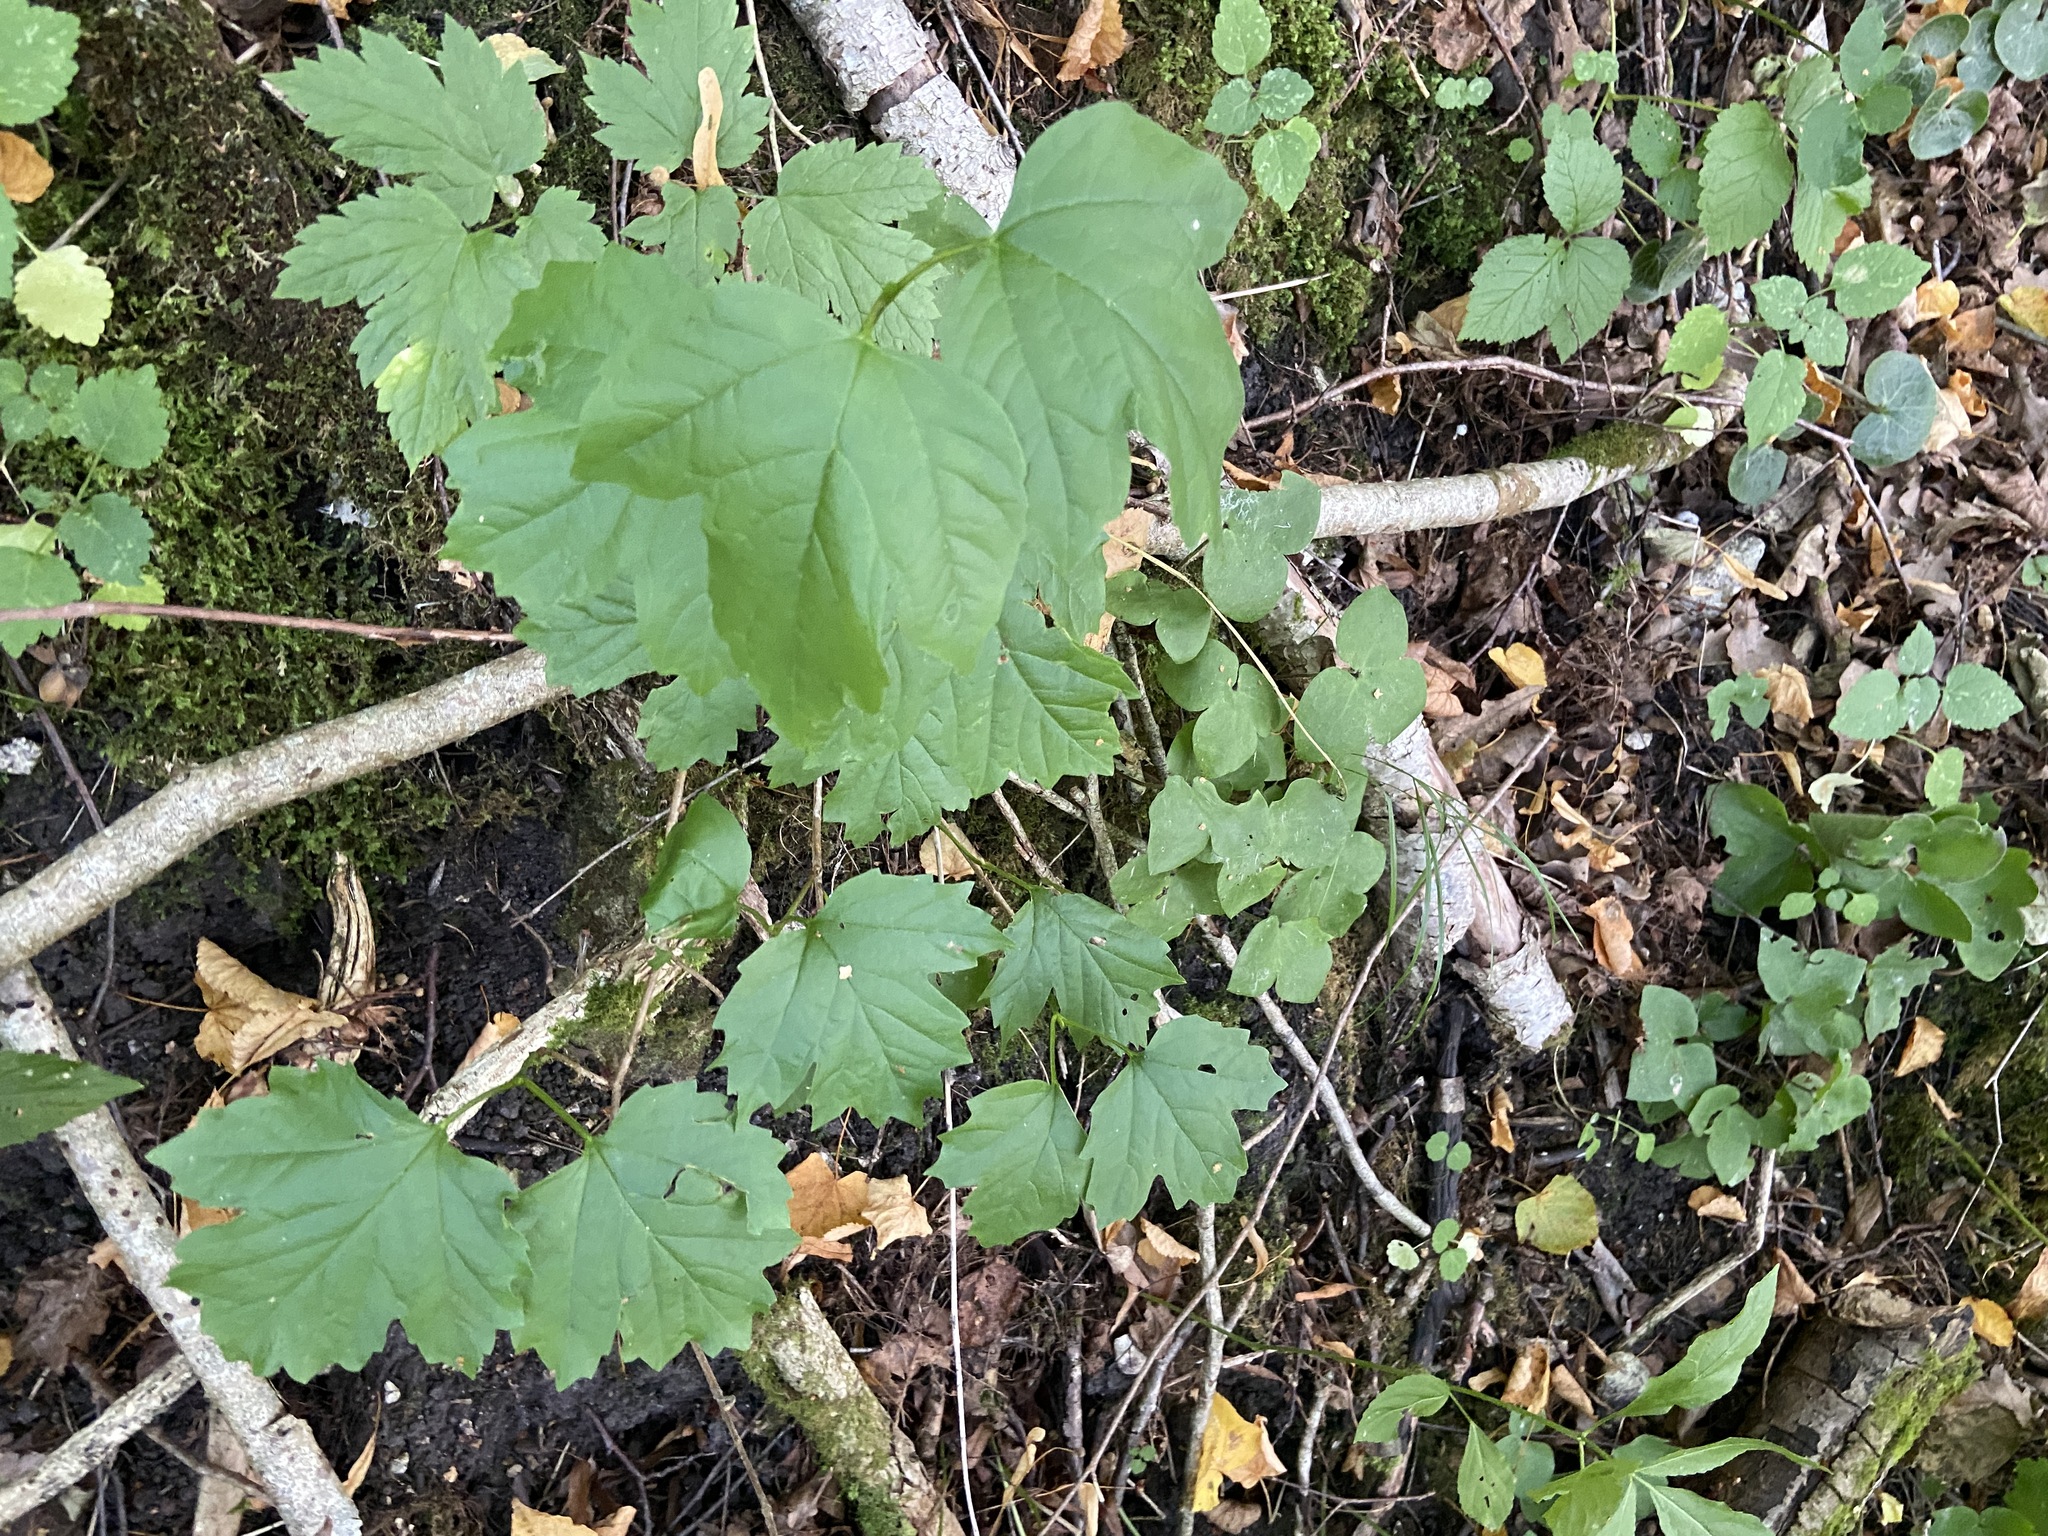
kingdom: Plantae
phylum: Tracheophyta
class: Magnoliopsida
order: Dipsacales
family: Viburnaceae
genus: Viburnum
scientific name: Viburnum opulus
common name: Guelder-rose
